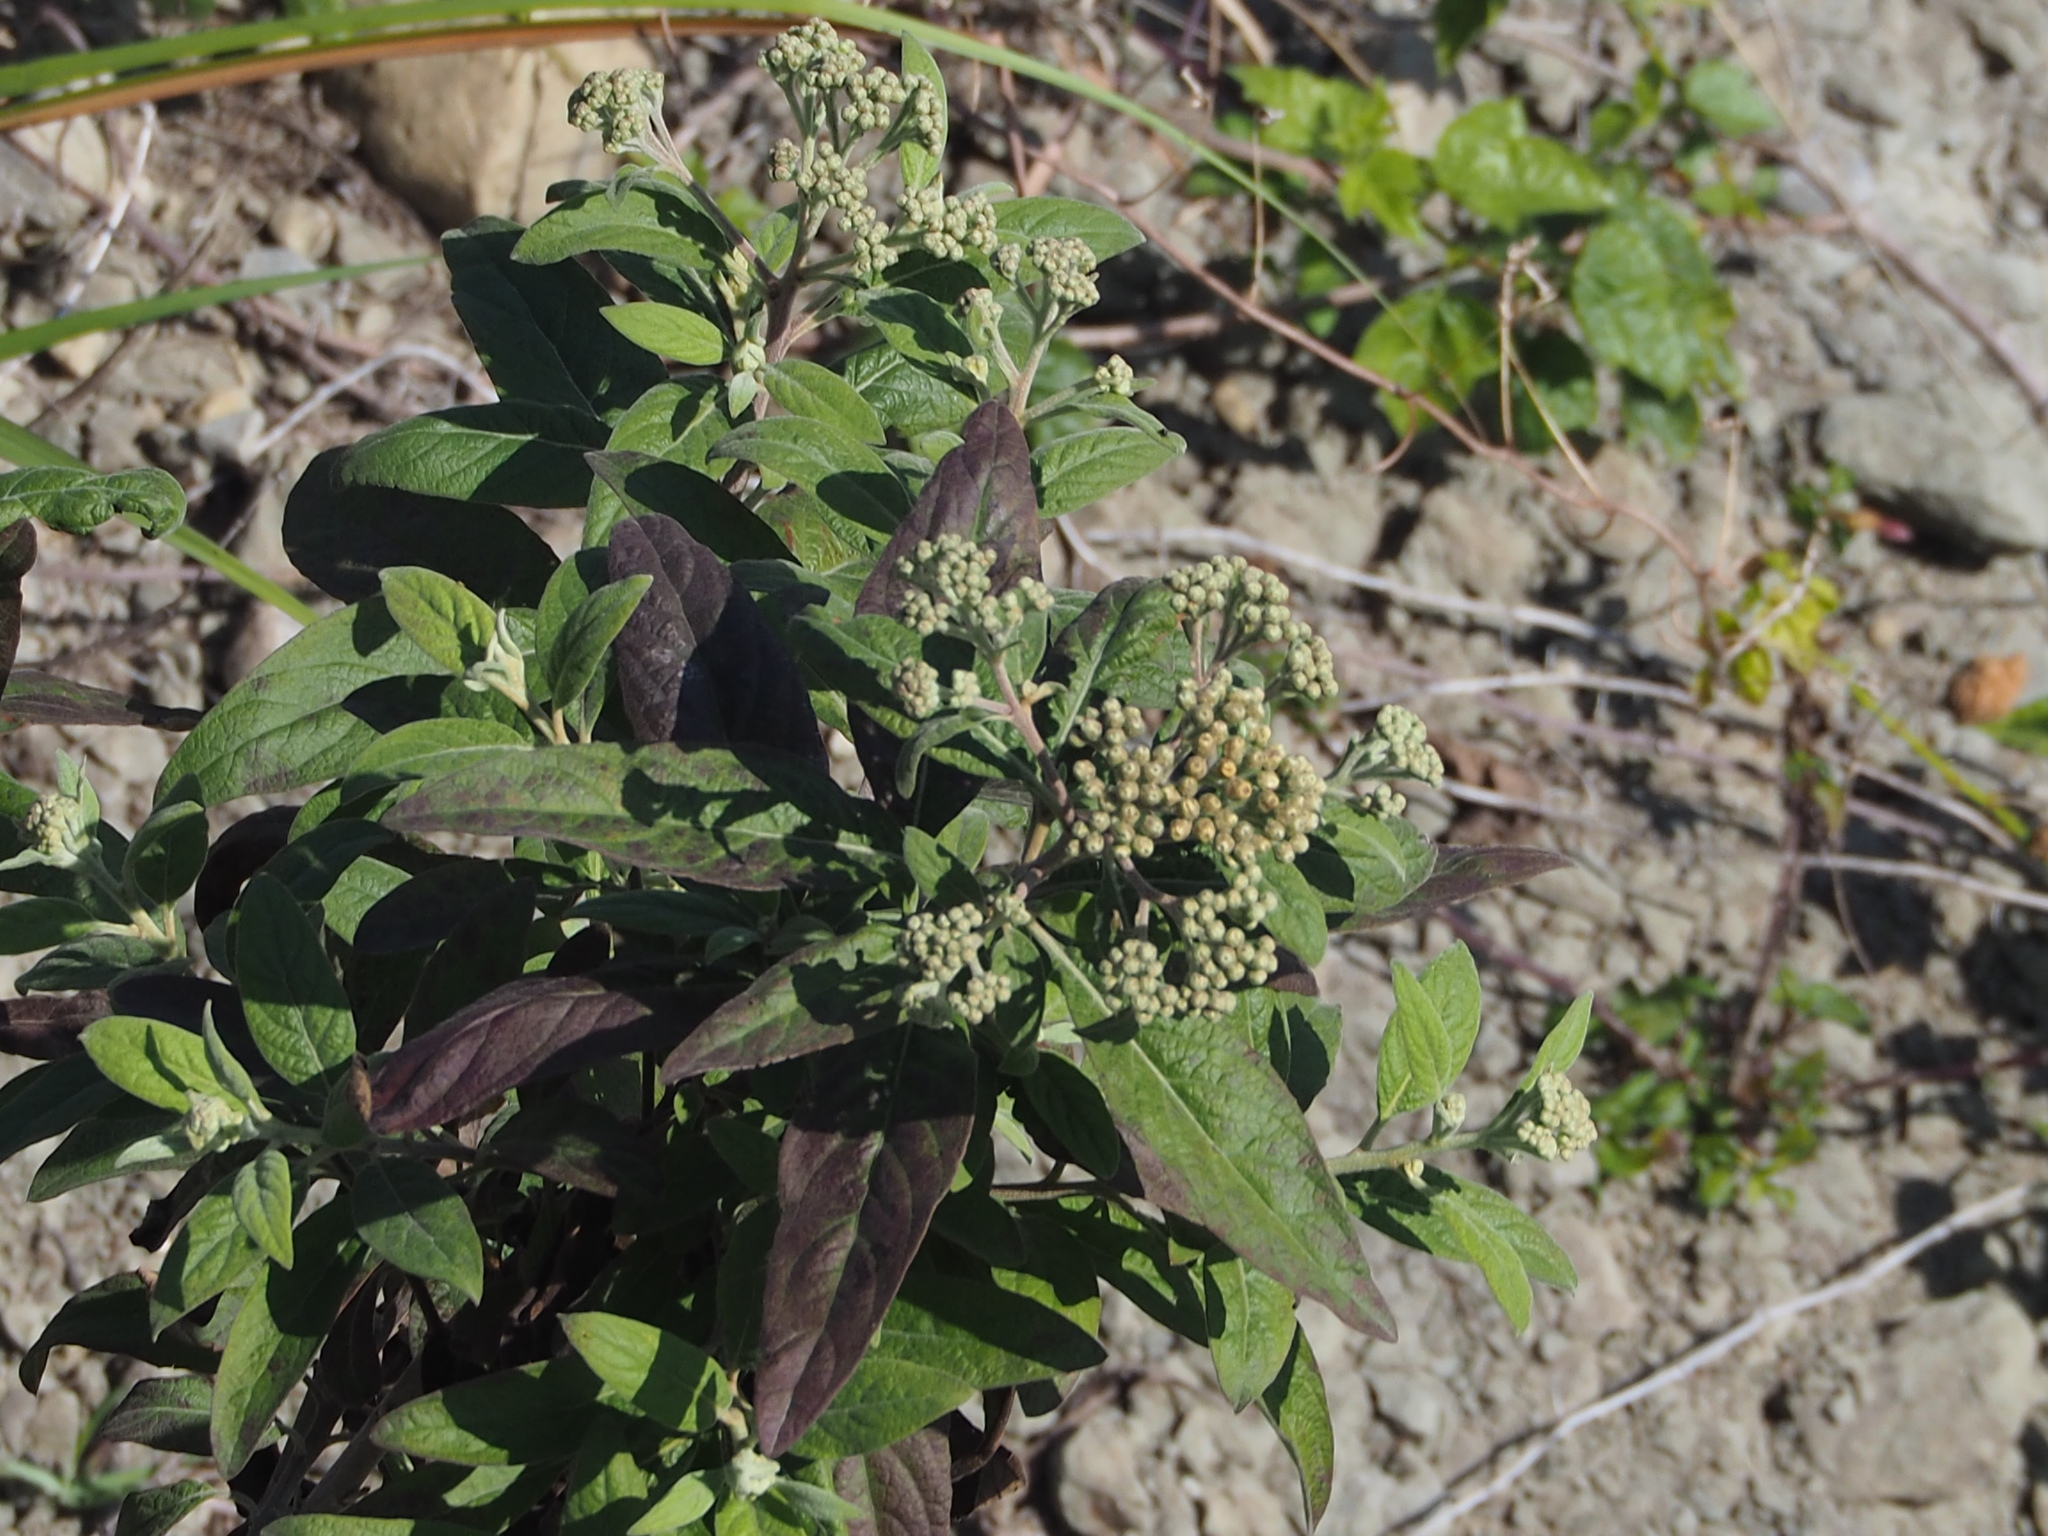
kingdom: Plantae
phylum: Tracheophyta
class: Magnoliopsida
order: Asterales
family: Asteraceae
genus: Pluchea
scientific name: Pluchea carolinensis
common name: Marsh fleabane
